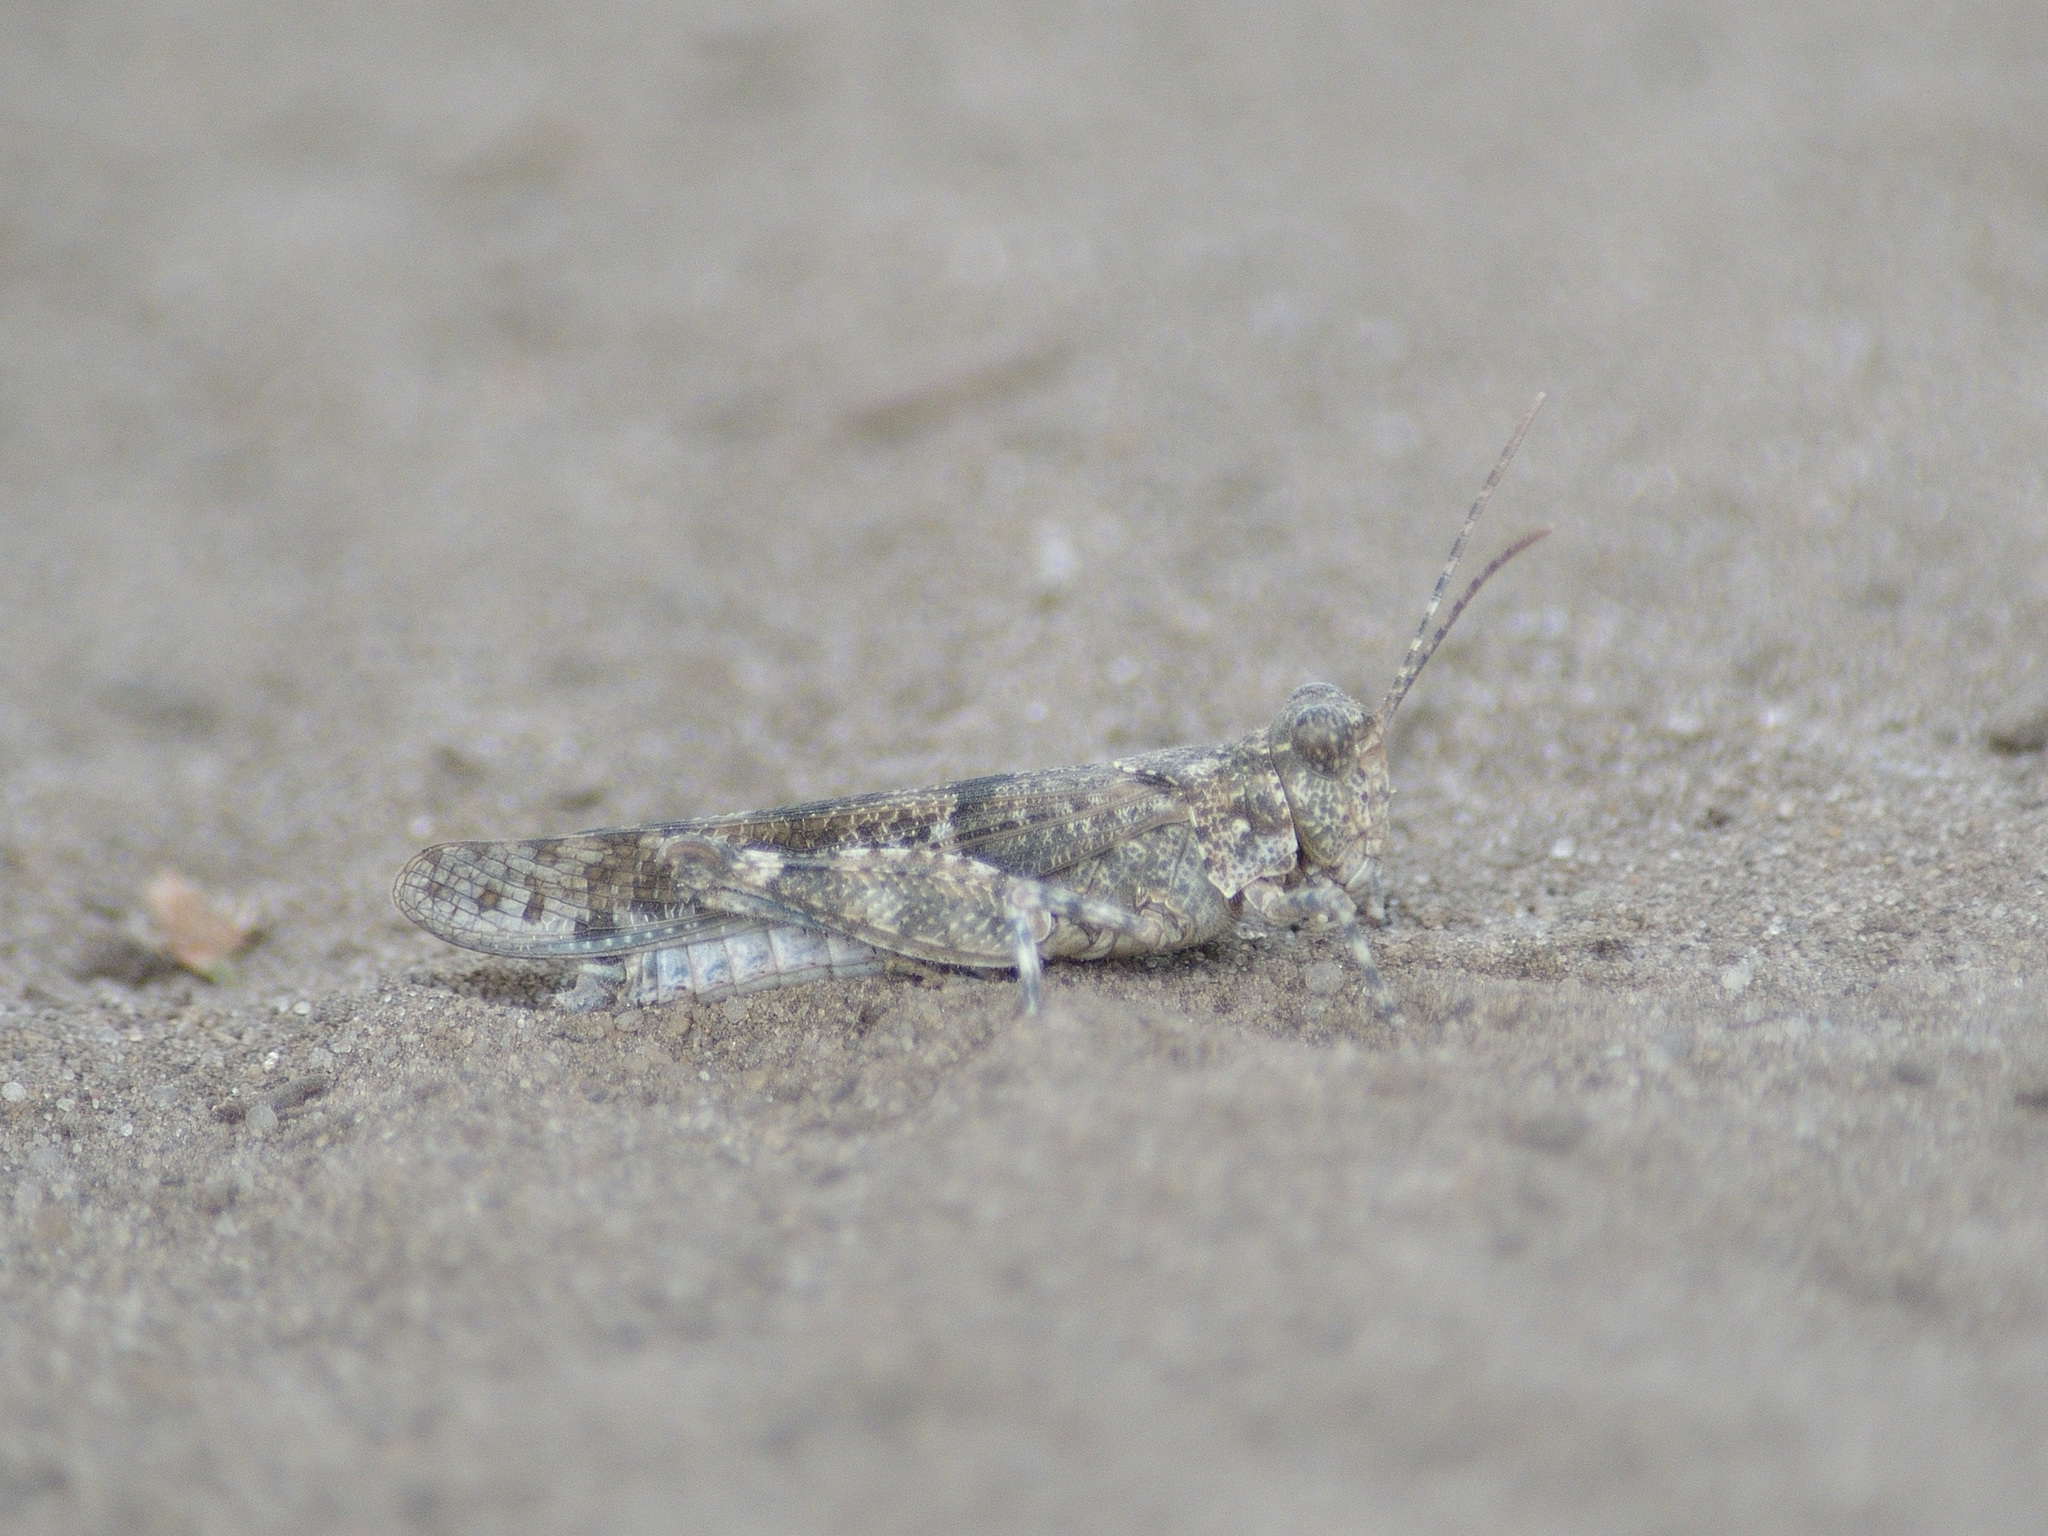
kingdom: Animalia
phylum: Arthropoda
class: Insecta
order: Orthoptera
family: Acrididae
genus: Sphingonotus
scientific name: Sphingonotus caerulans
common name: Blue-winged locust
